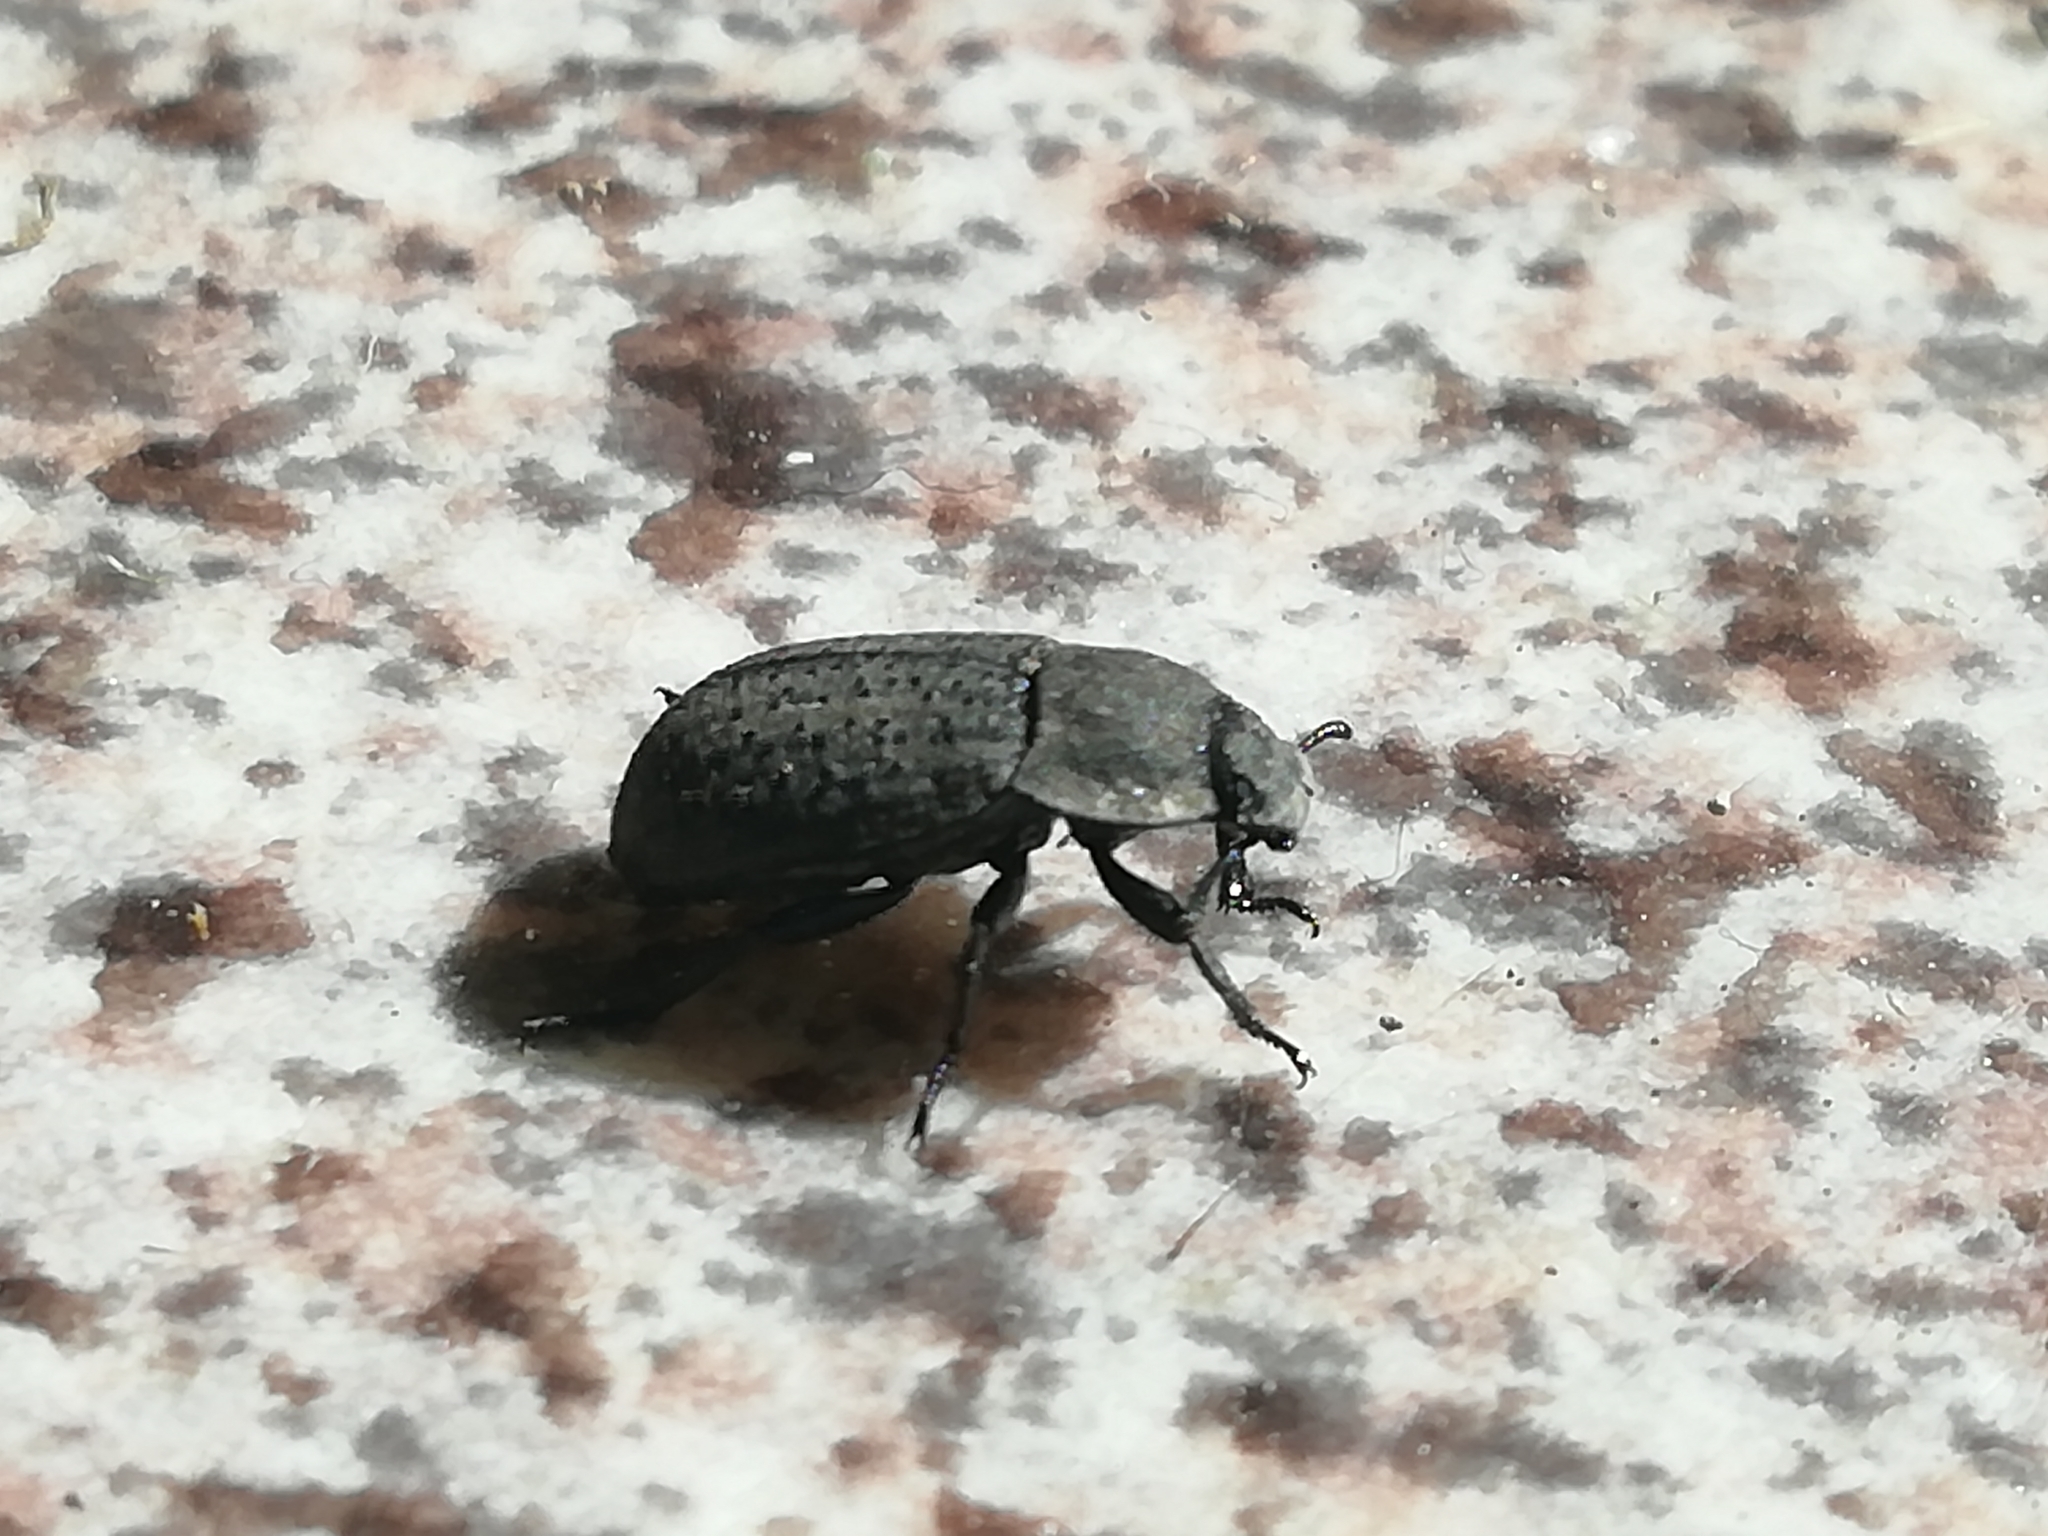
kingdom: Animalia
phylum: Arthropoda
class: Insecta
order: Coleoptera
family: Tenebrionidae
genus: Opatrum
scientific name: Opatrum sabulosum
